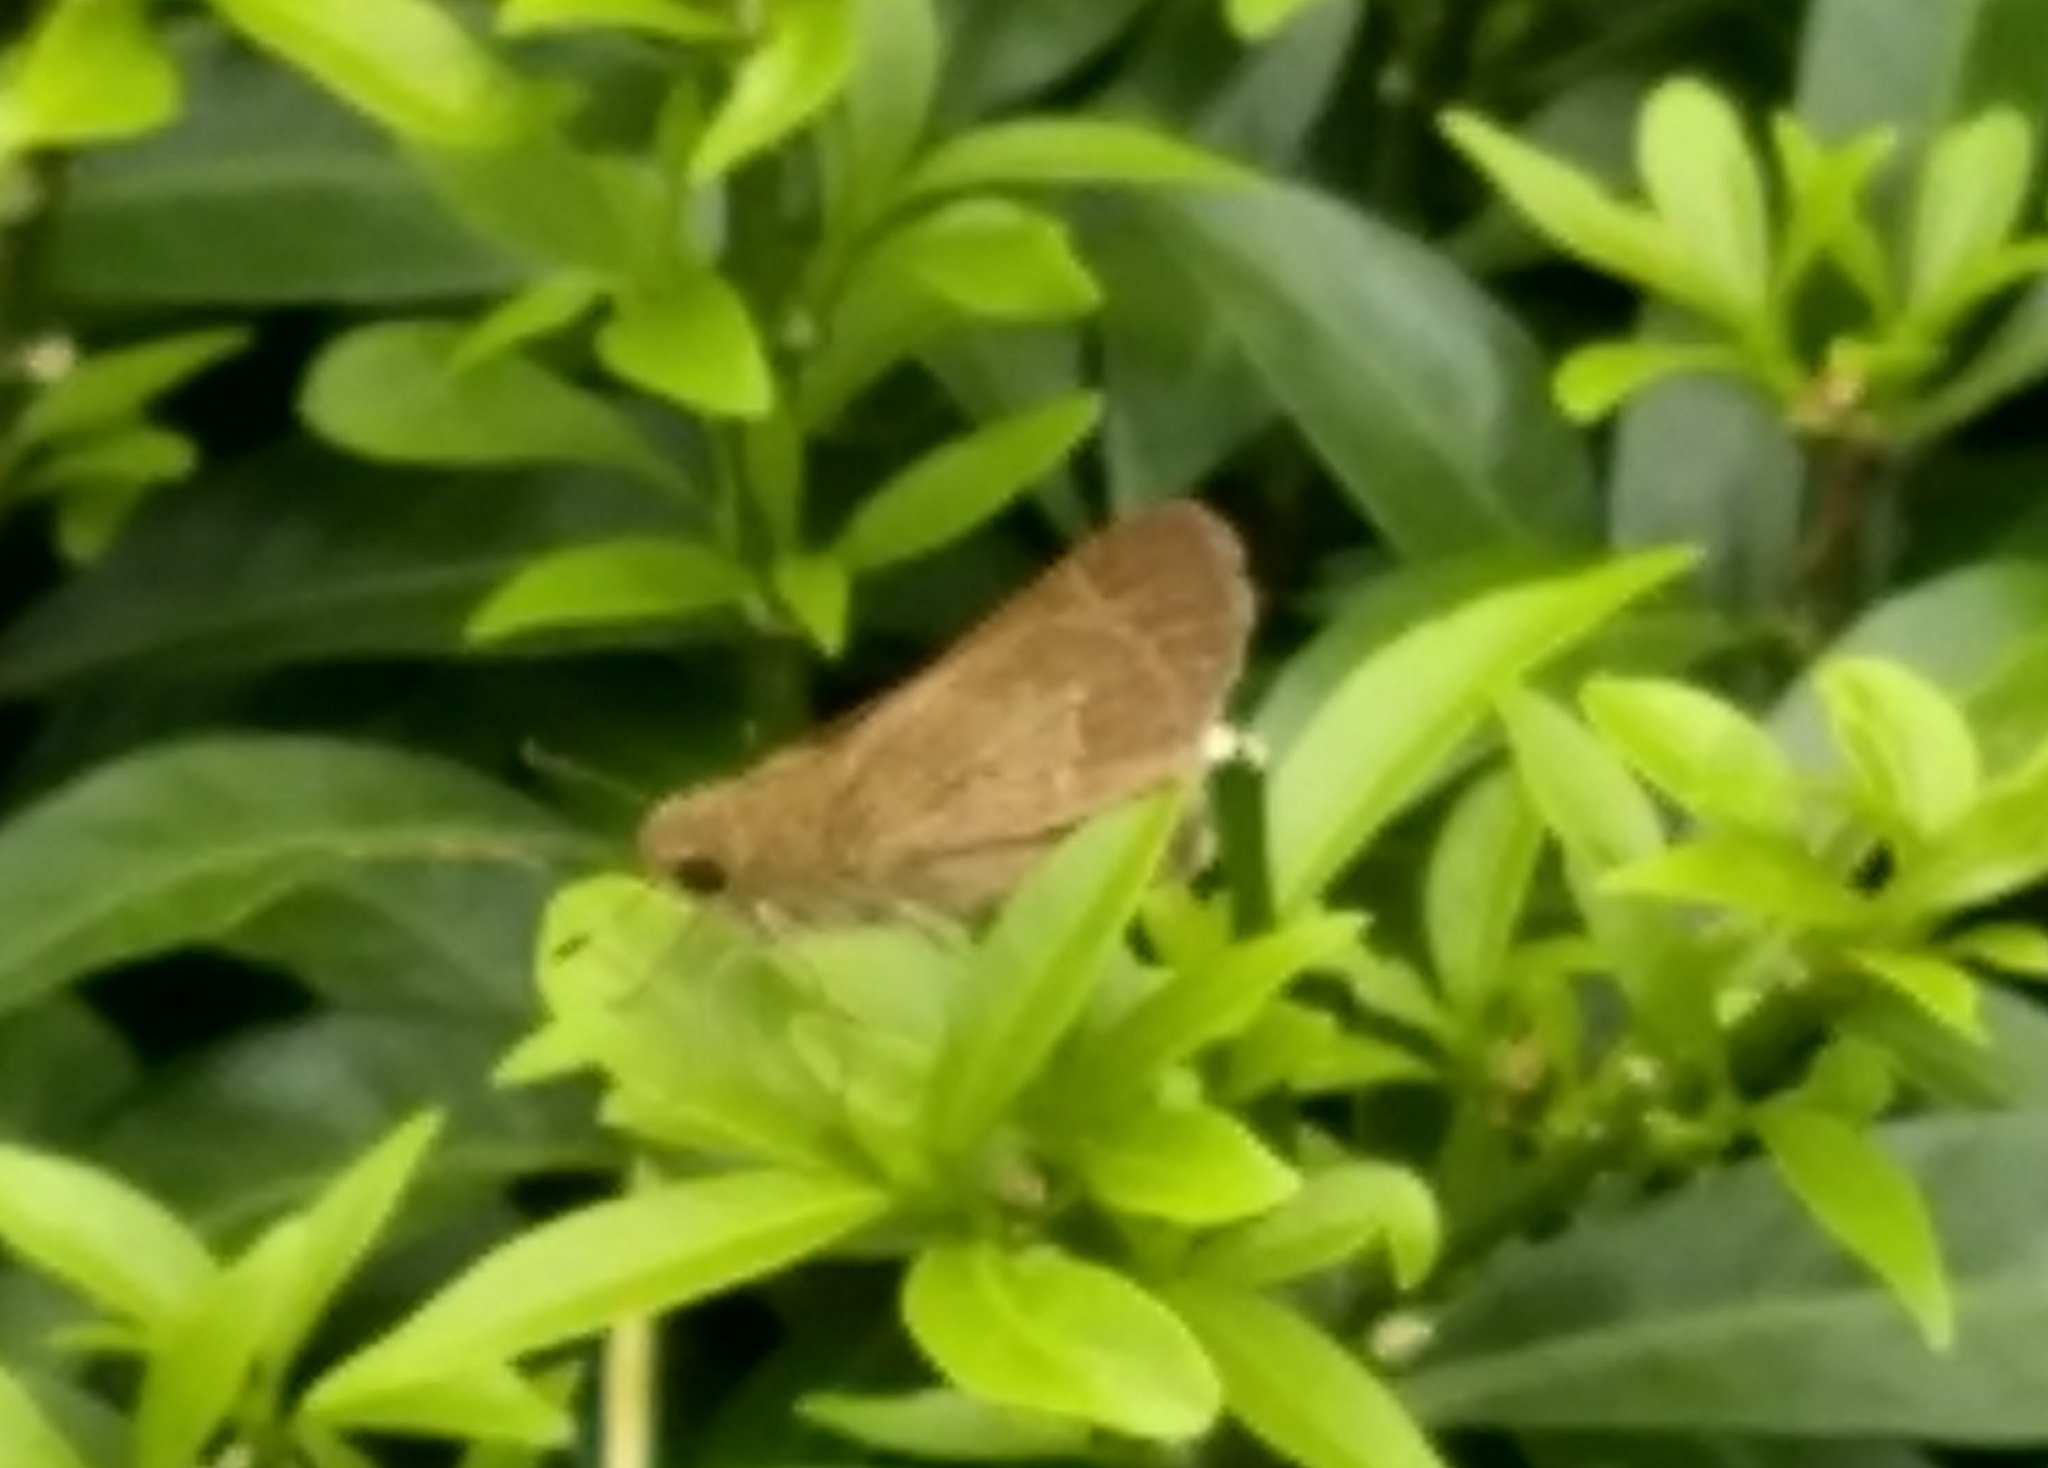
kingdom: Animalia
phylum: Arthropoda
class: Insecta
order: Lepidoptera
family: Hesperiidae
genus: Parnara
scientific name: Parnara naso
